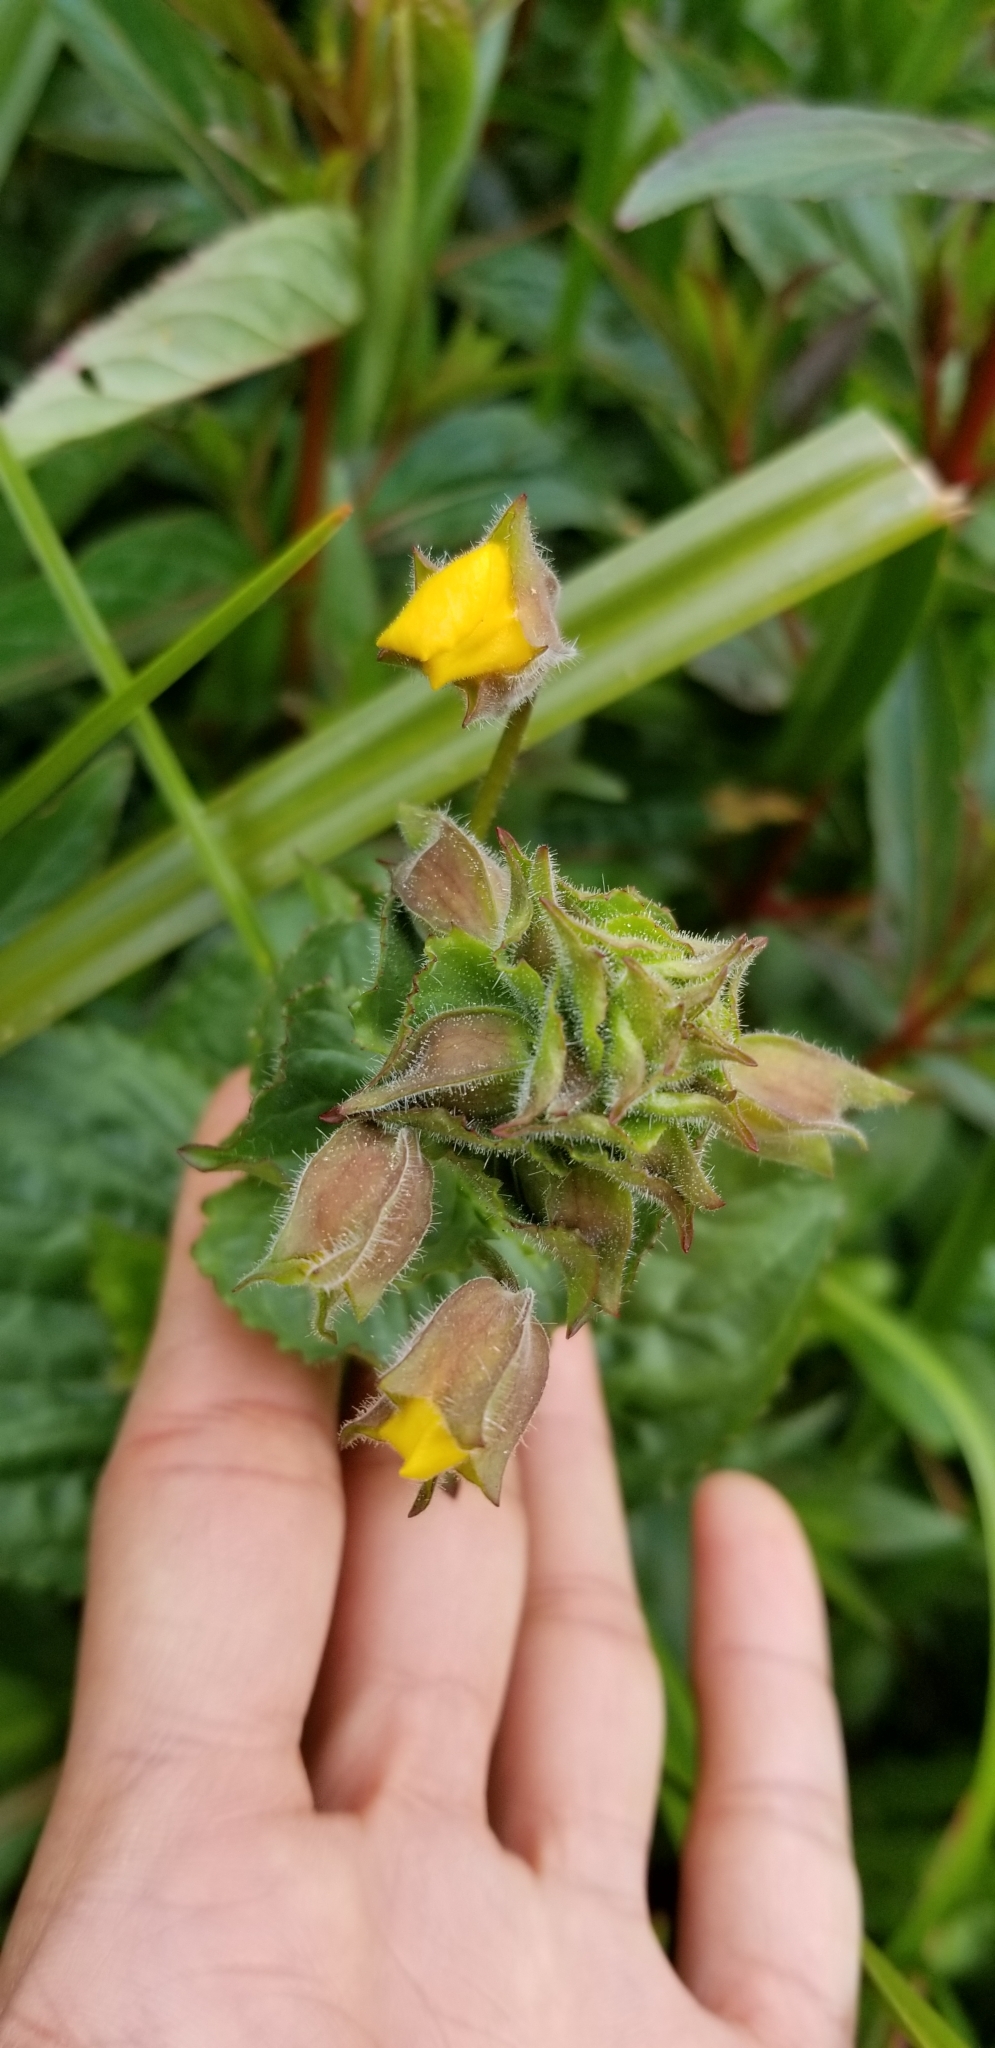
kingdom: Plantae
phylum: Tracheophyta
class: Magnoliopsida
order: Lamiales
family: Phrymaceae
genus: Erythranthe
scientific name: Erythranthe guttata
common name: Monkeyflower
